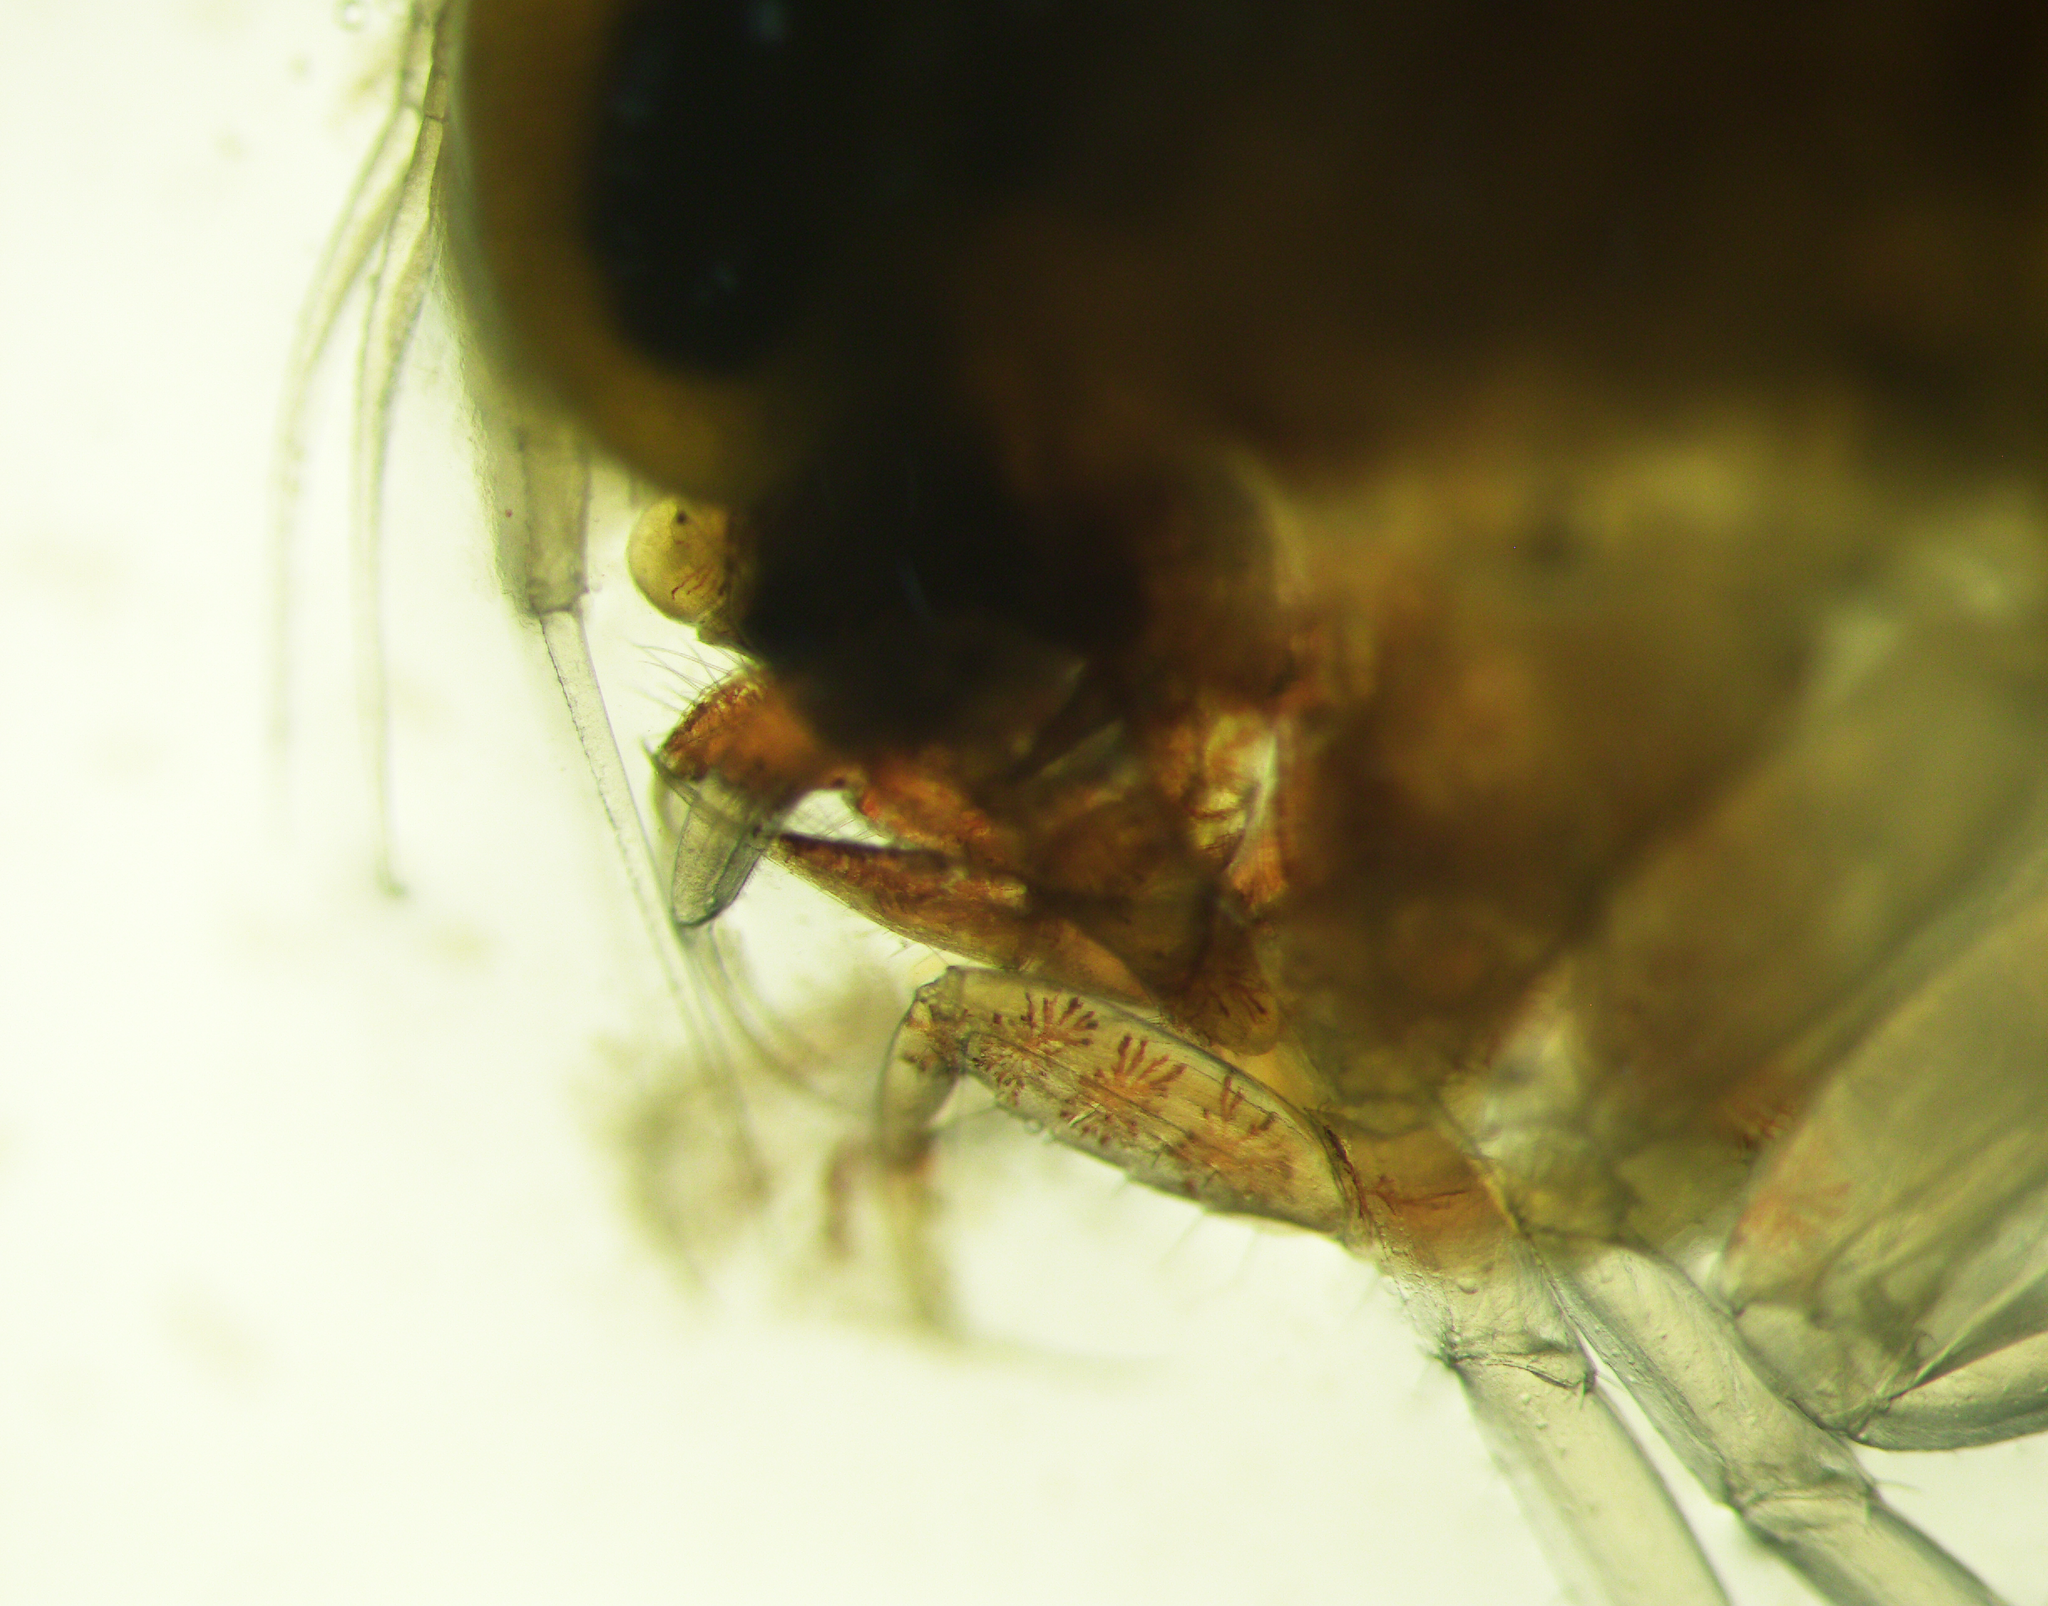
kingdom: Animalia
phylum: Arthropoda
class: Malacostraca
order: Amphipoda
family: Hyperiidae
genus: Themisto
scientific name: Themisto abyssorum
